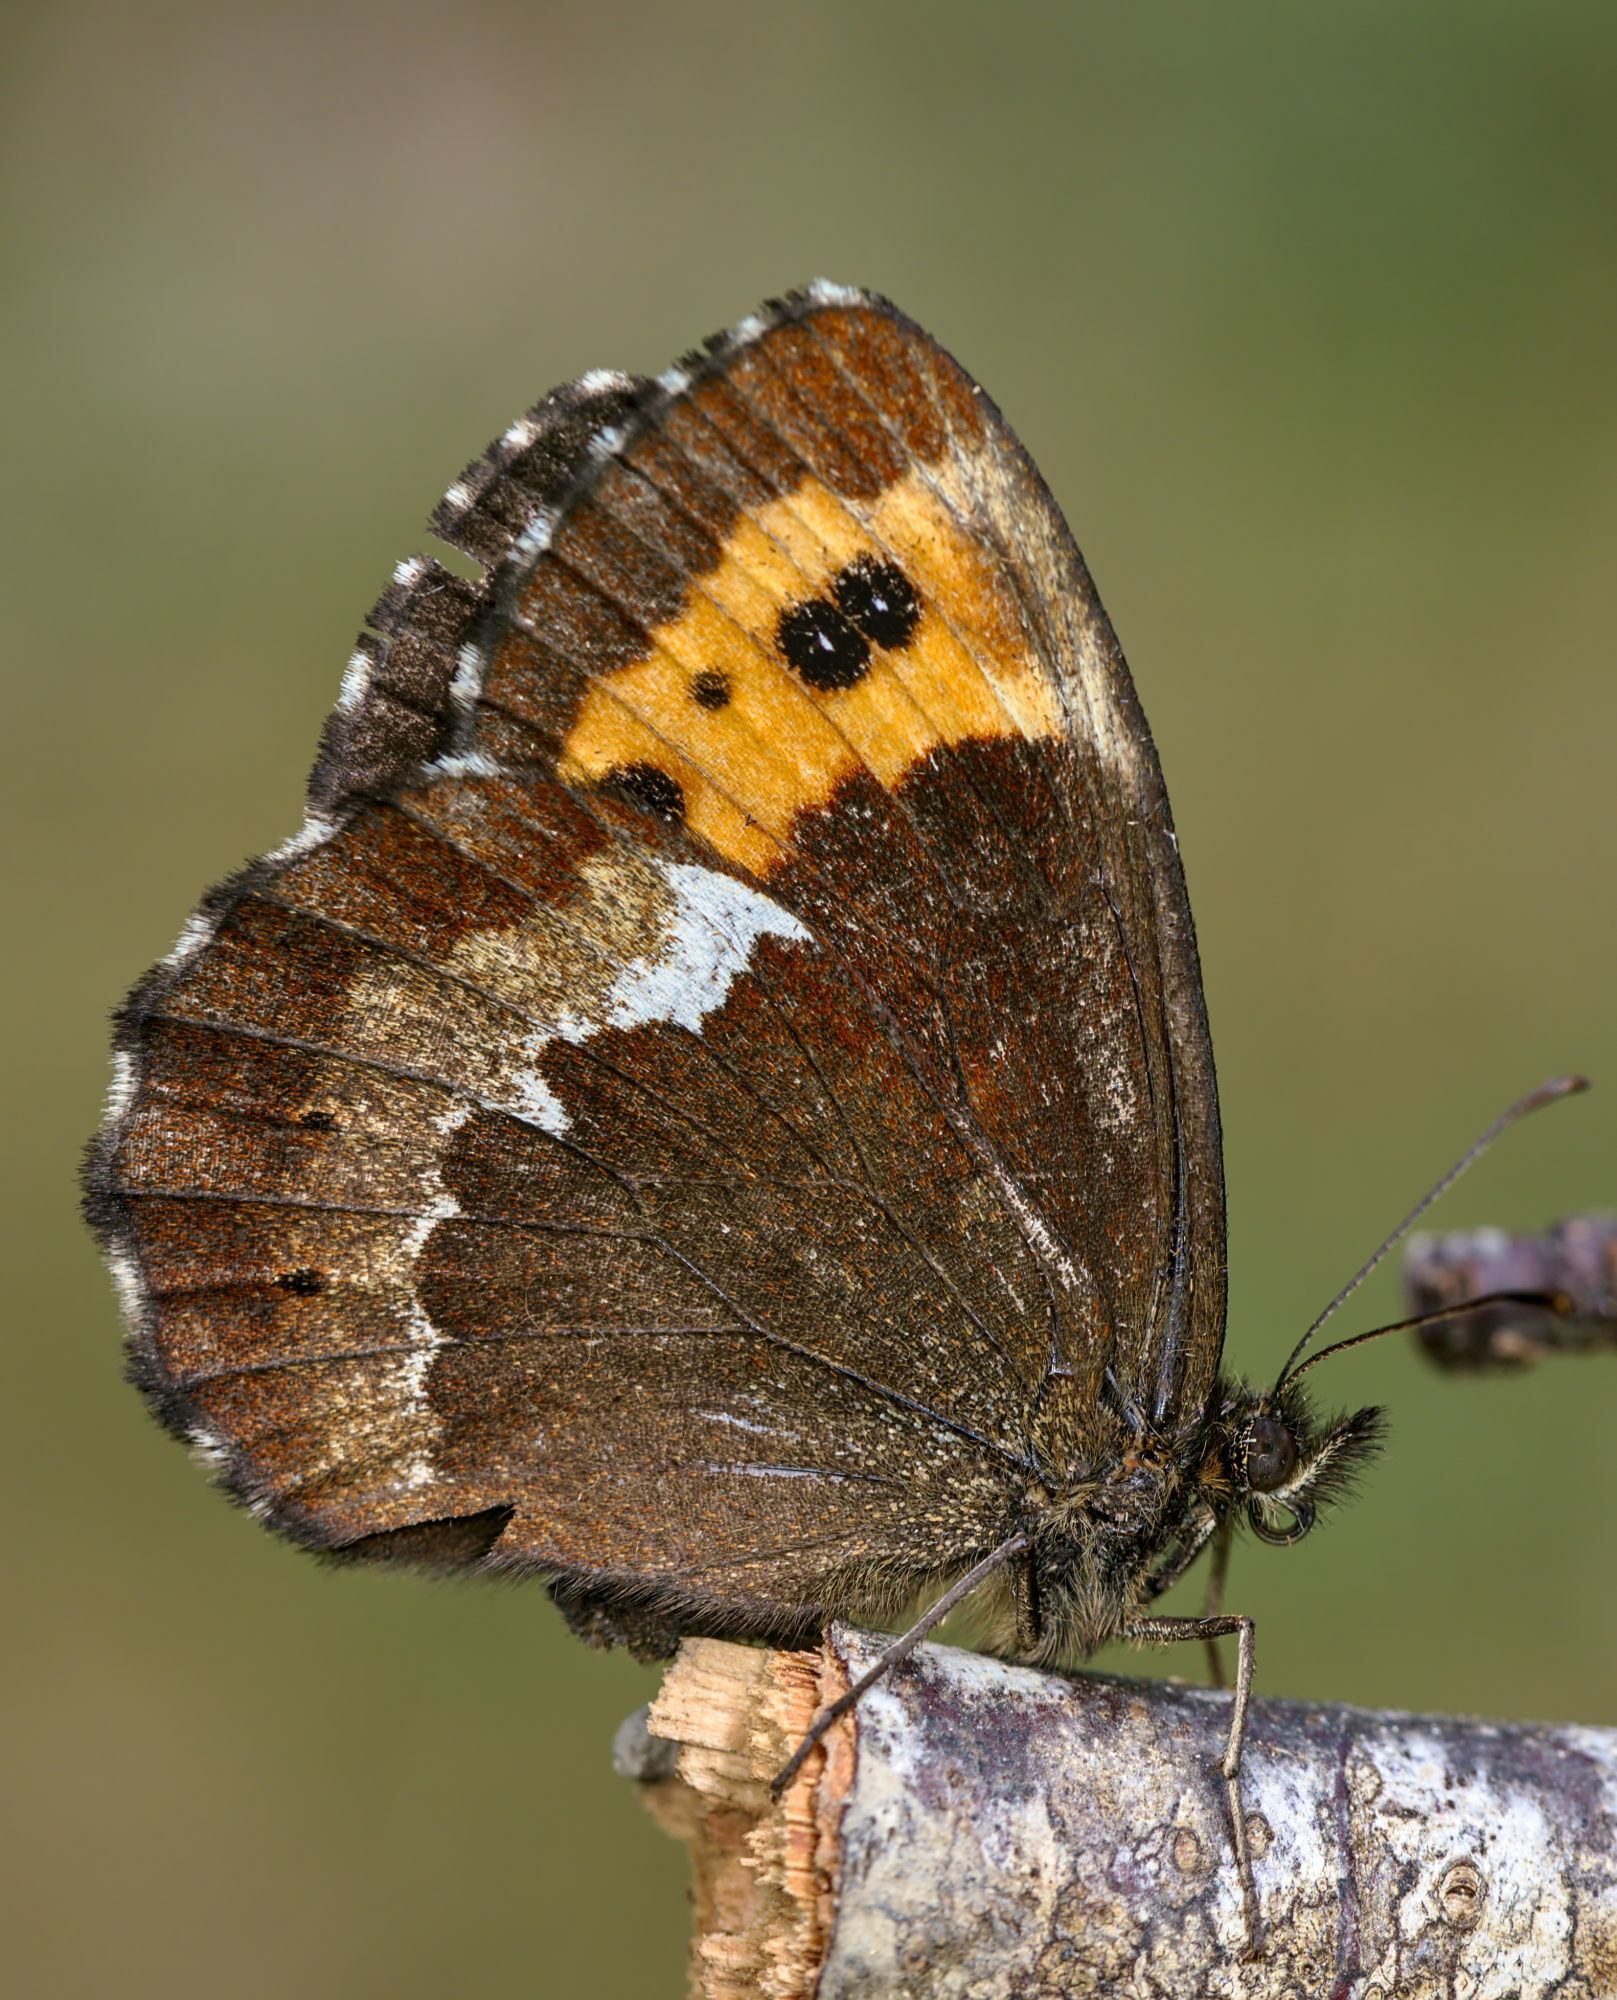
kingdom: Animalia
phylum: Arthropoda
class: Insecta
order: Lepidoptera
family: Nymphalidae
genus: Erebia
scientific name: Erebia ligea
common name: Arran brown
